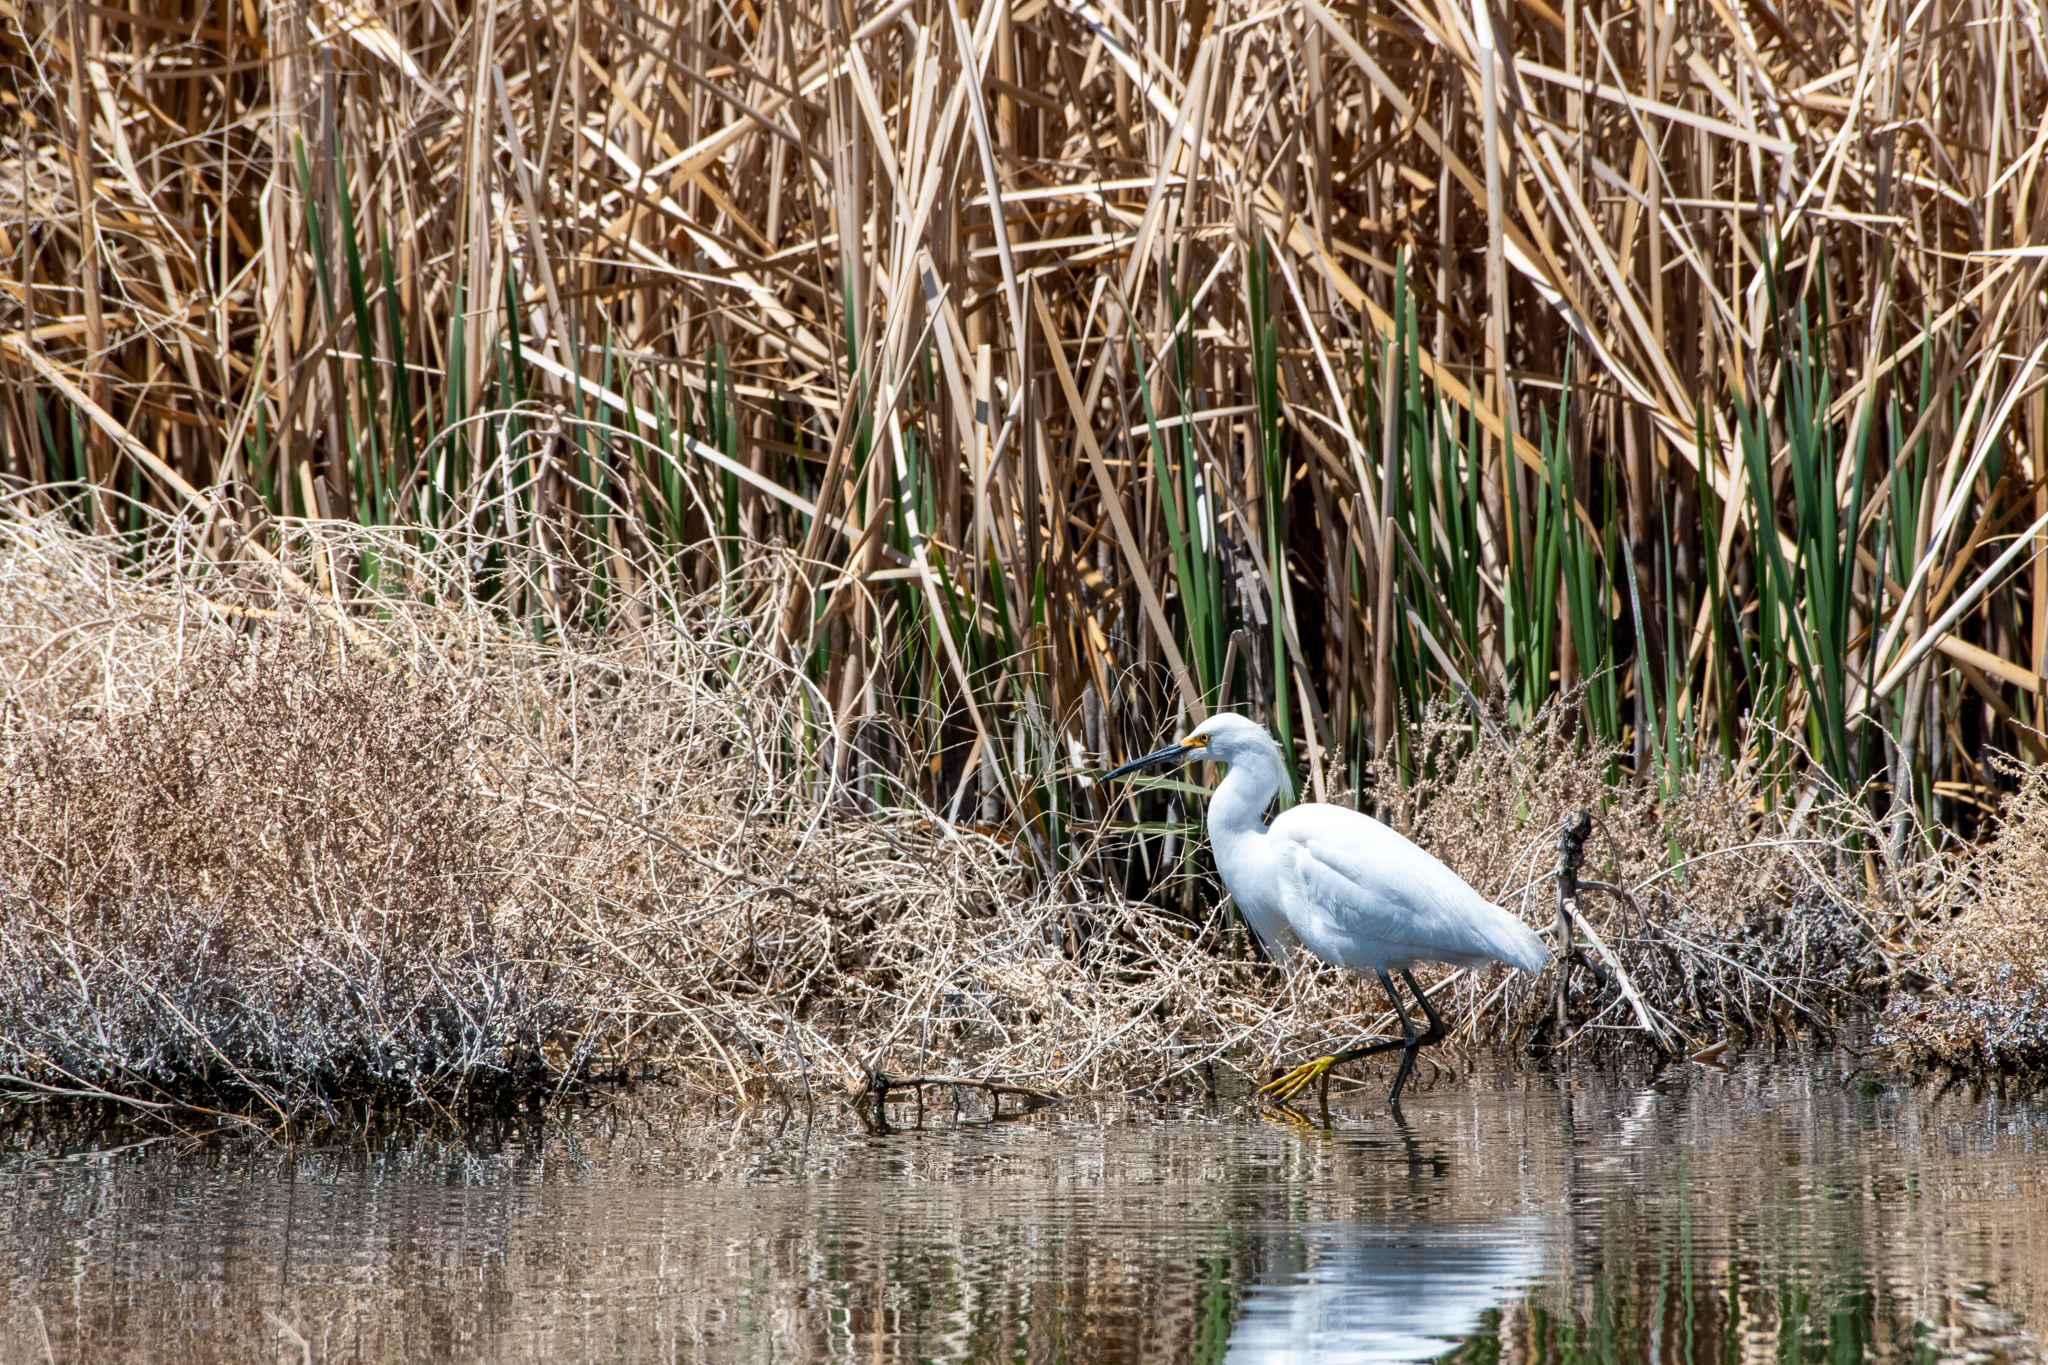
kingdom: Animalia
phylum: Chordata
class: Aves
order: Pelecaniformes
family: Ardeidae
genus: Egretta
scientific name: Egretta thula
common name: Snowy egret
